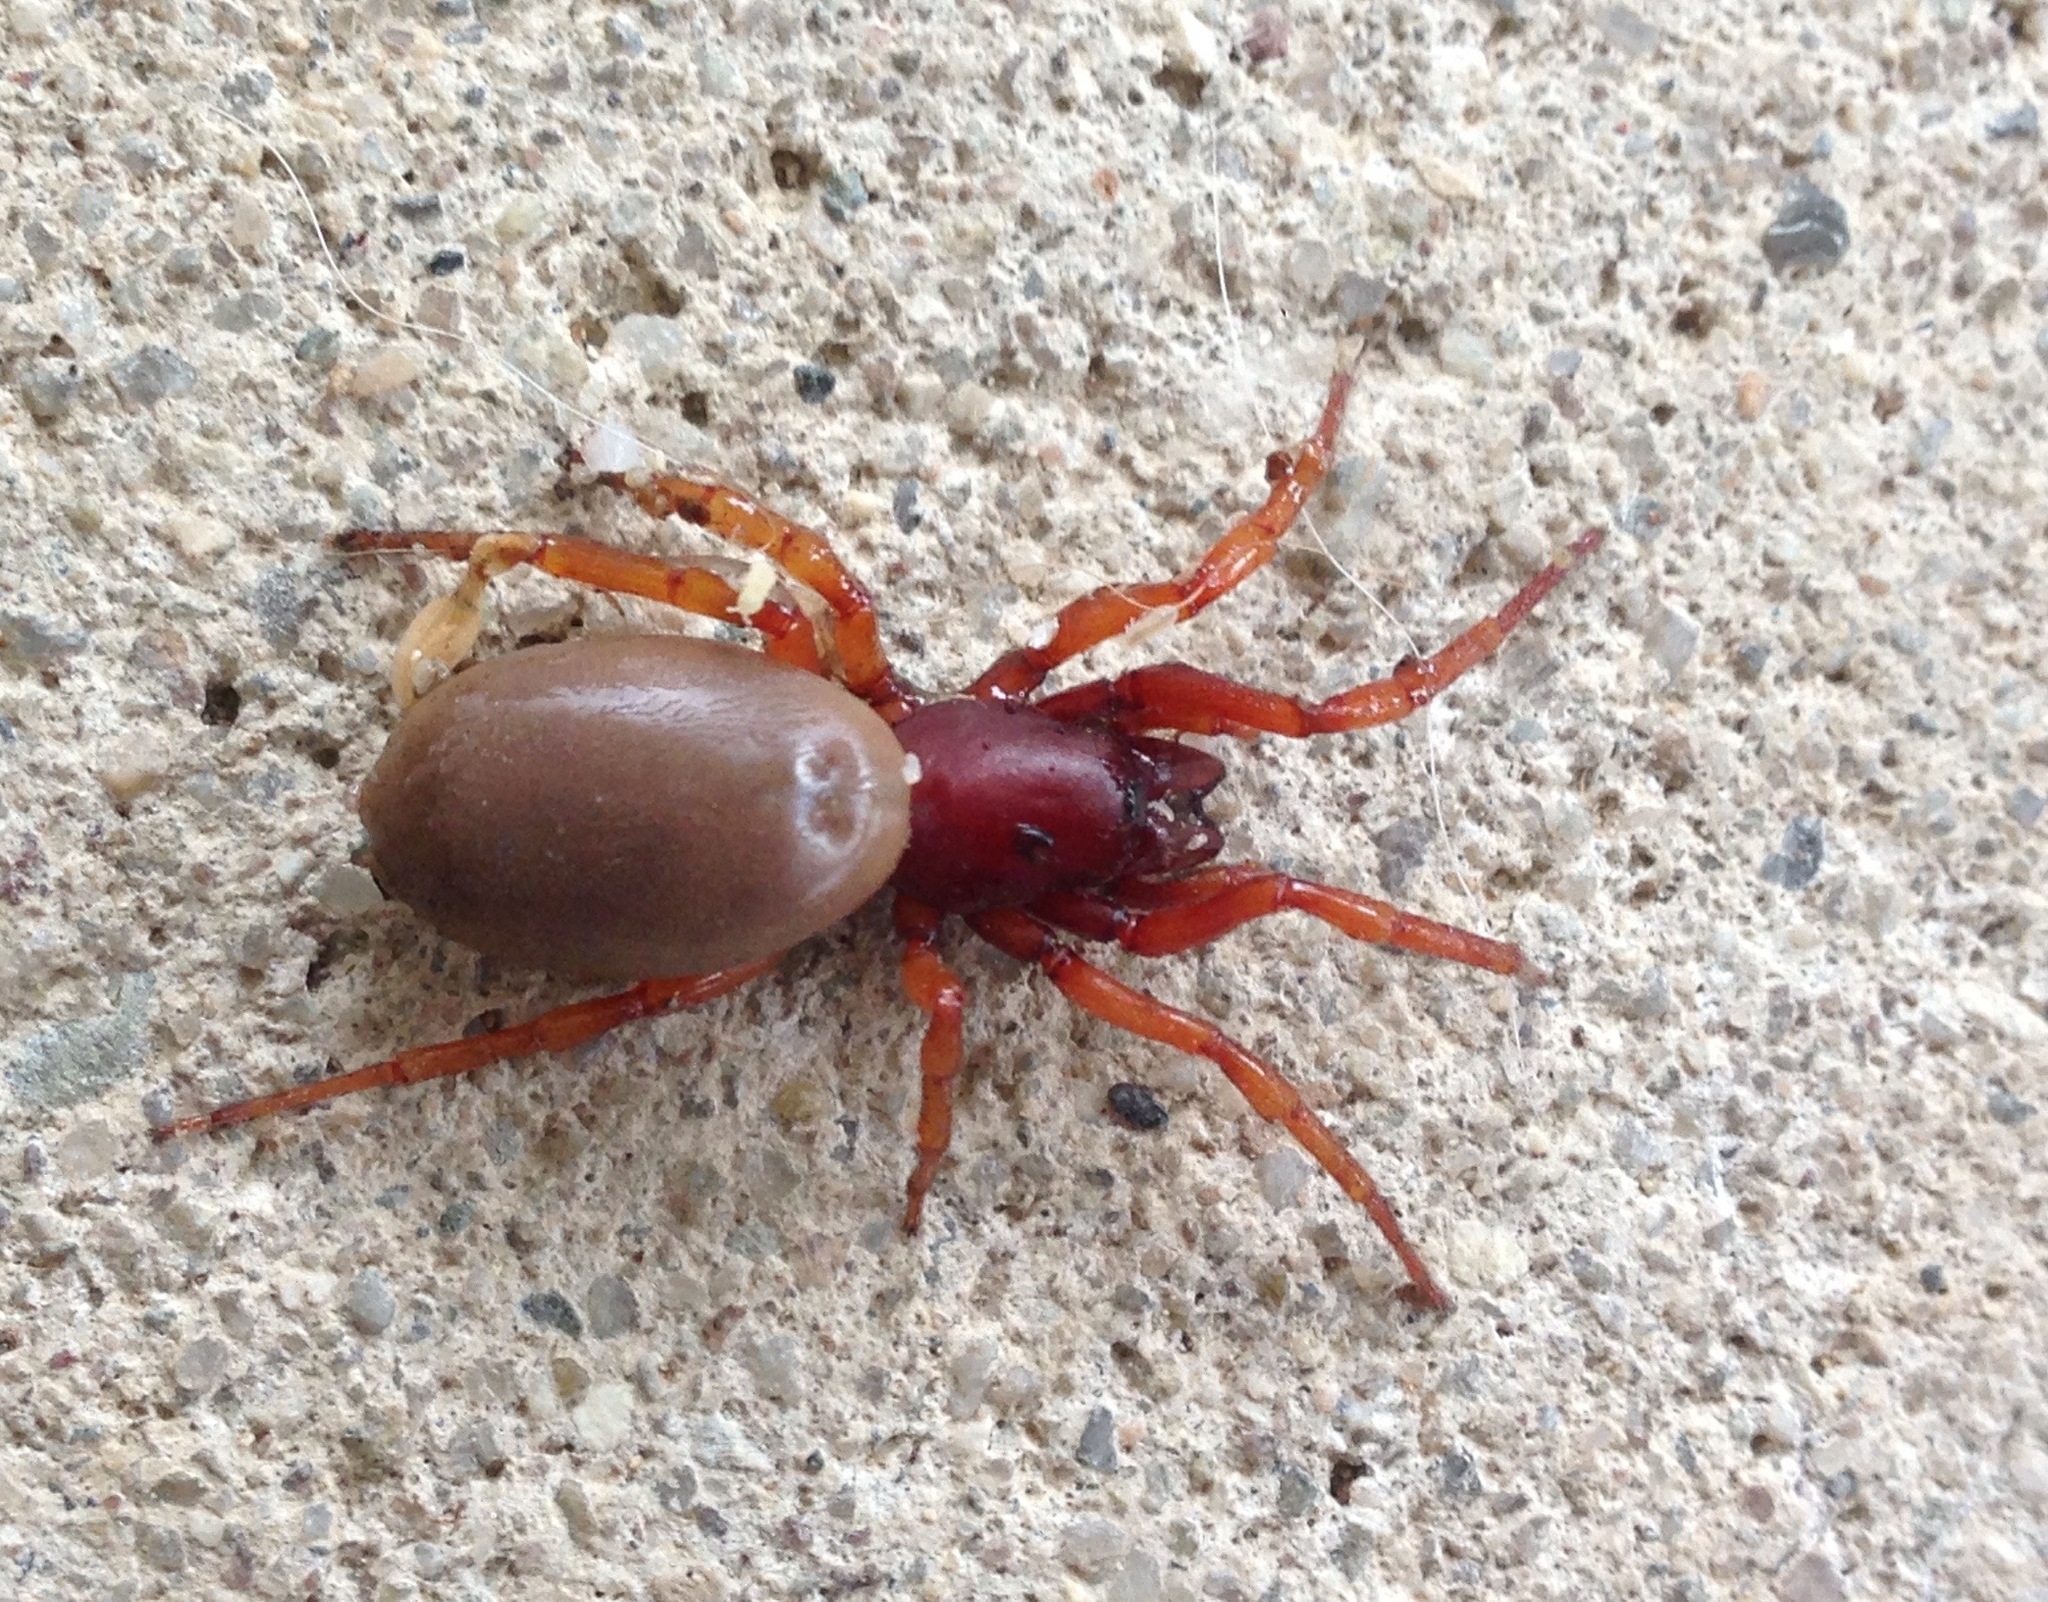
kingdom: Animalia
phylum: Arthropoda
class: Arachnida
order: Araneae
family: Dysderidae
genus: Dysdera
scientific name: Dysdera crocata
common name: Woodlouse spider
